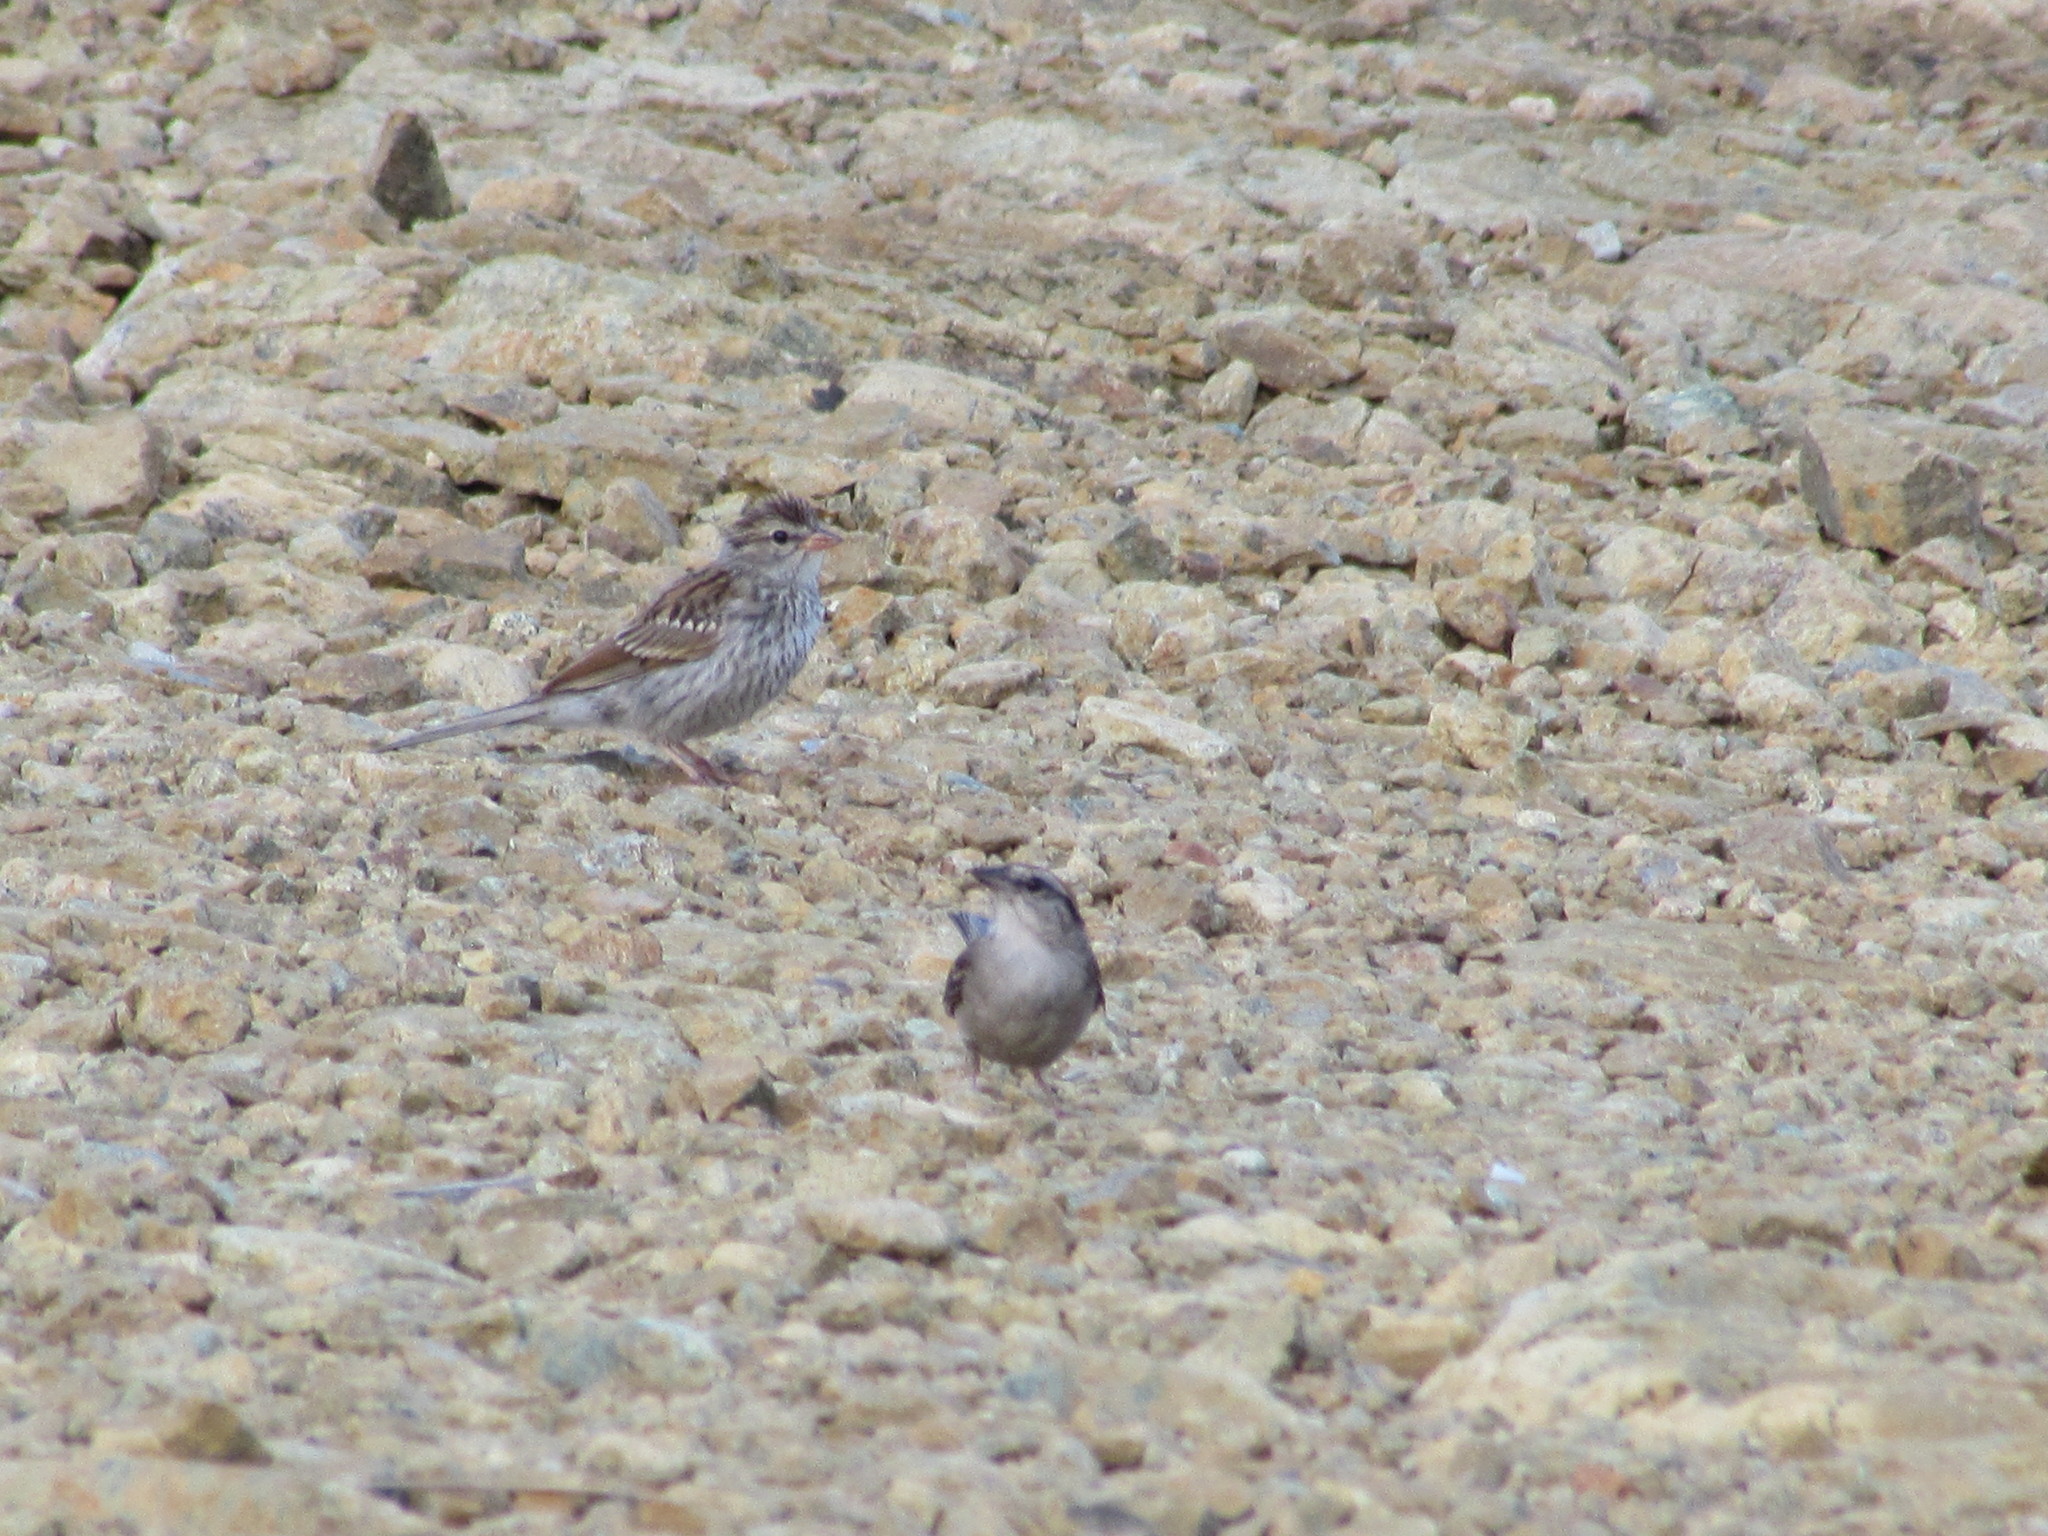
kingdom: Animalia
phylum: Chordata
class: Aves
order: Passeriformes
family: Passerellidae
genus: Spizella
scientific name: Spizella passerina
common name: Chipping sparrow
